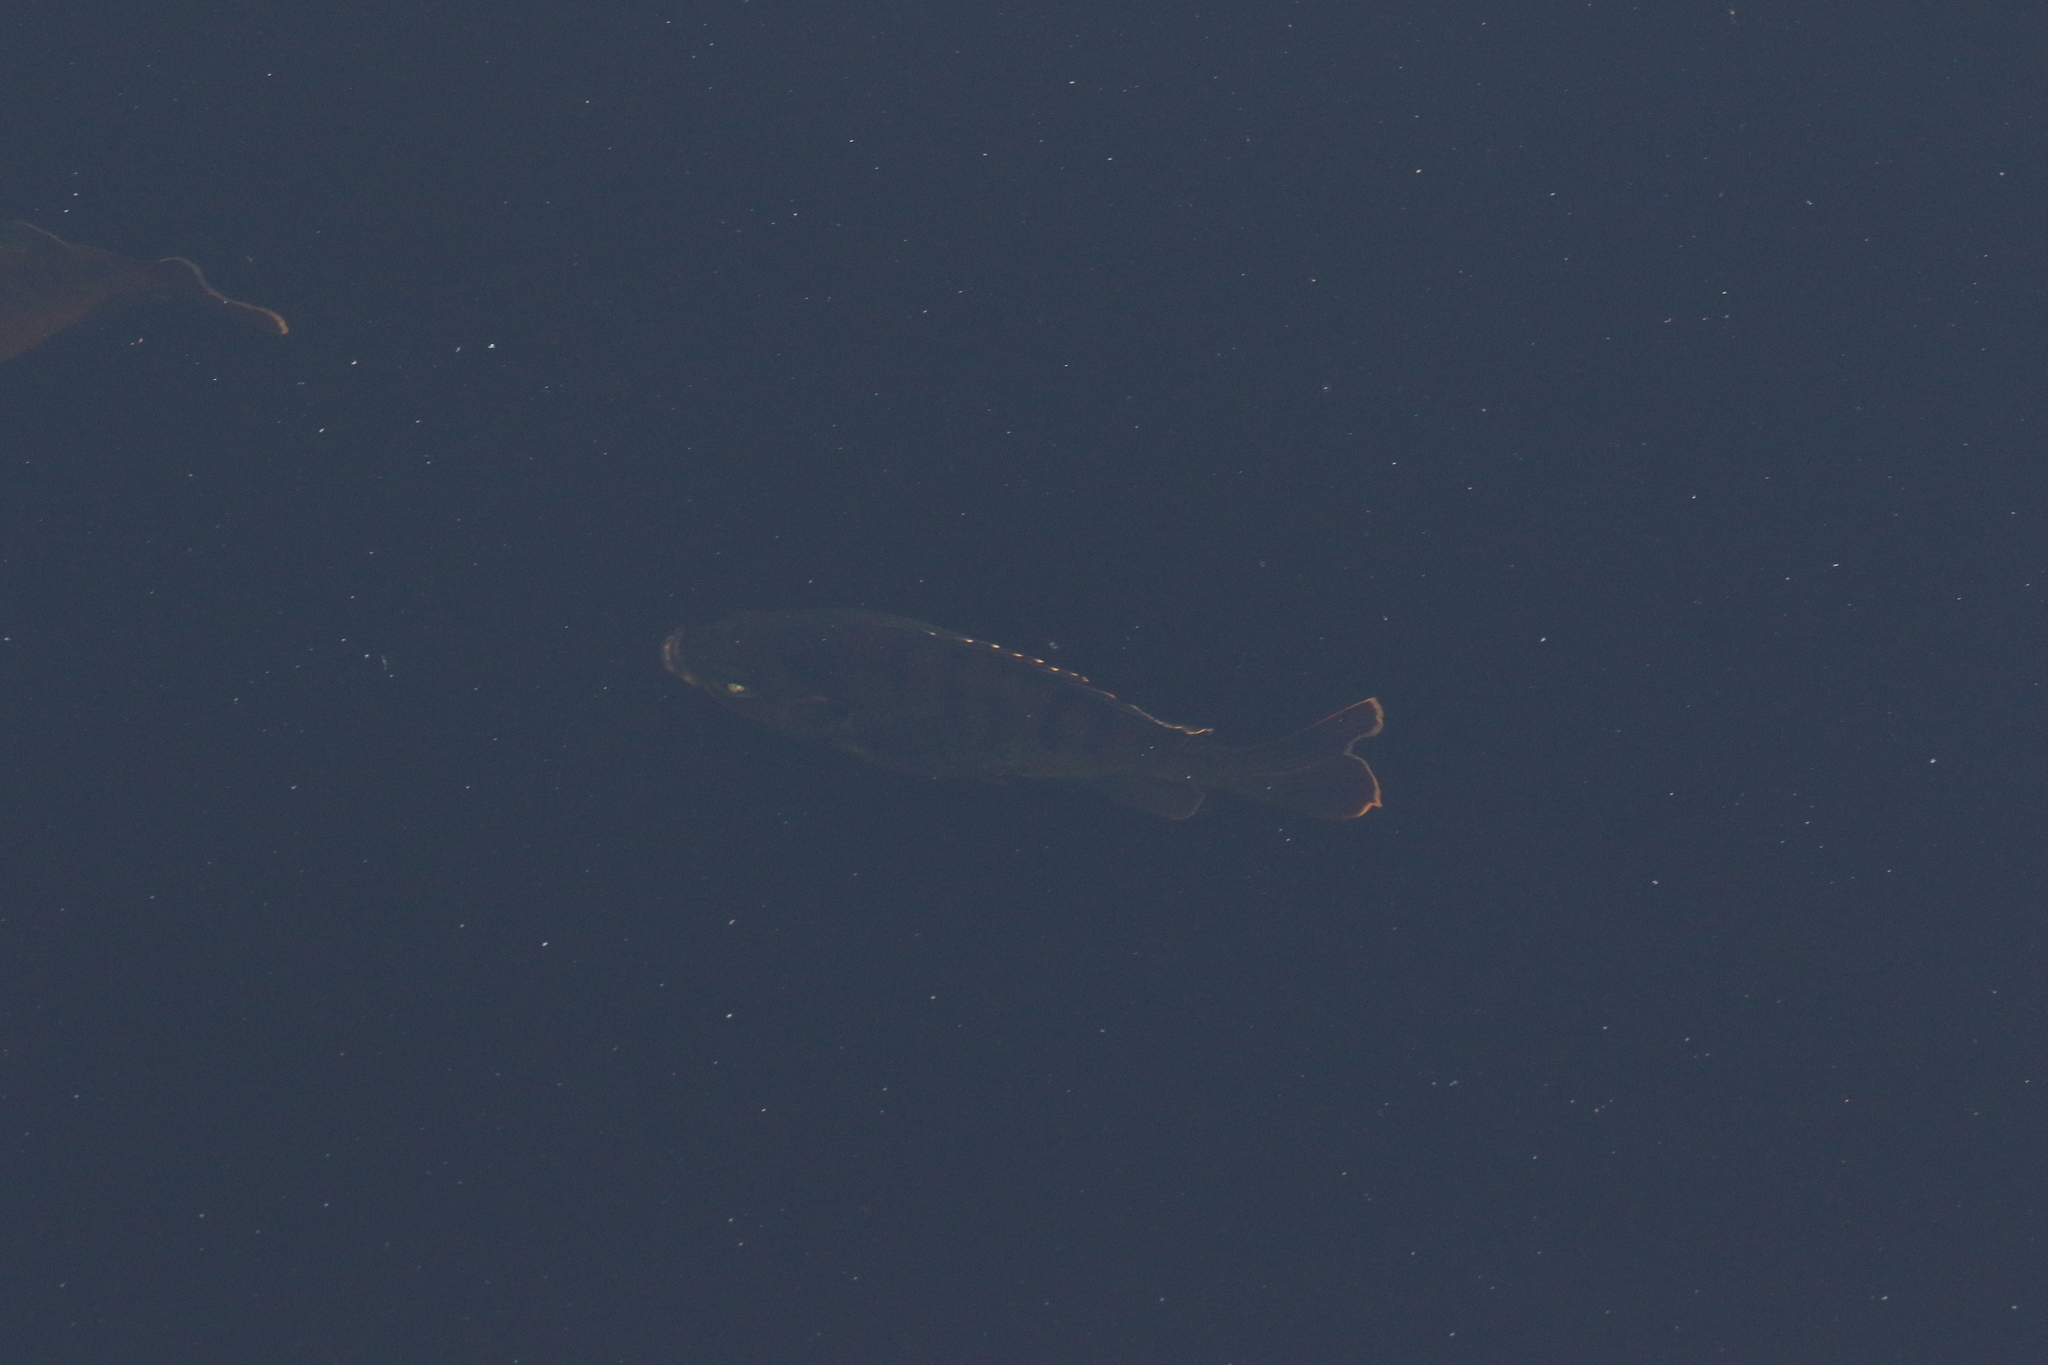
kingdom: Animalia
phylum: Chordata
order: Perciformes
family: Centrarchidae
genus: Lepomis
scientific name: Lepomis macrochirus
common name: Bluegill
